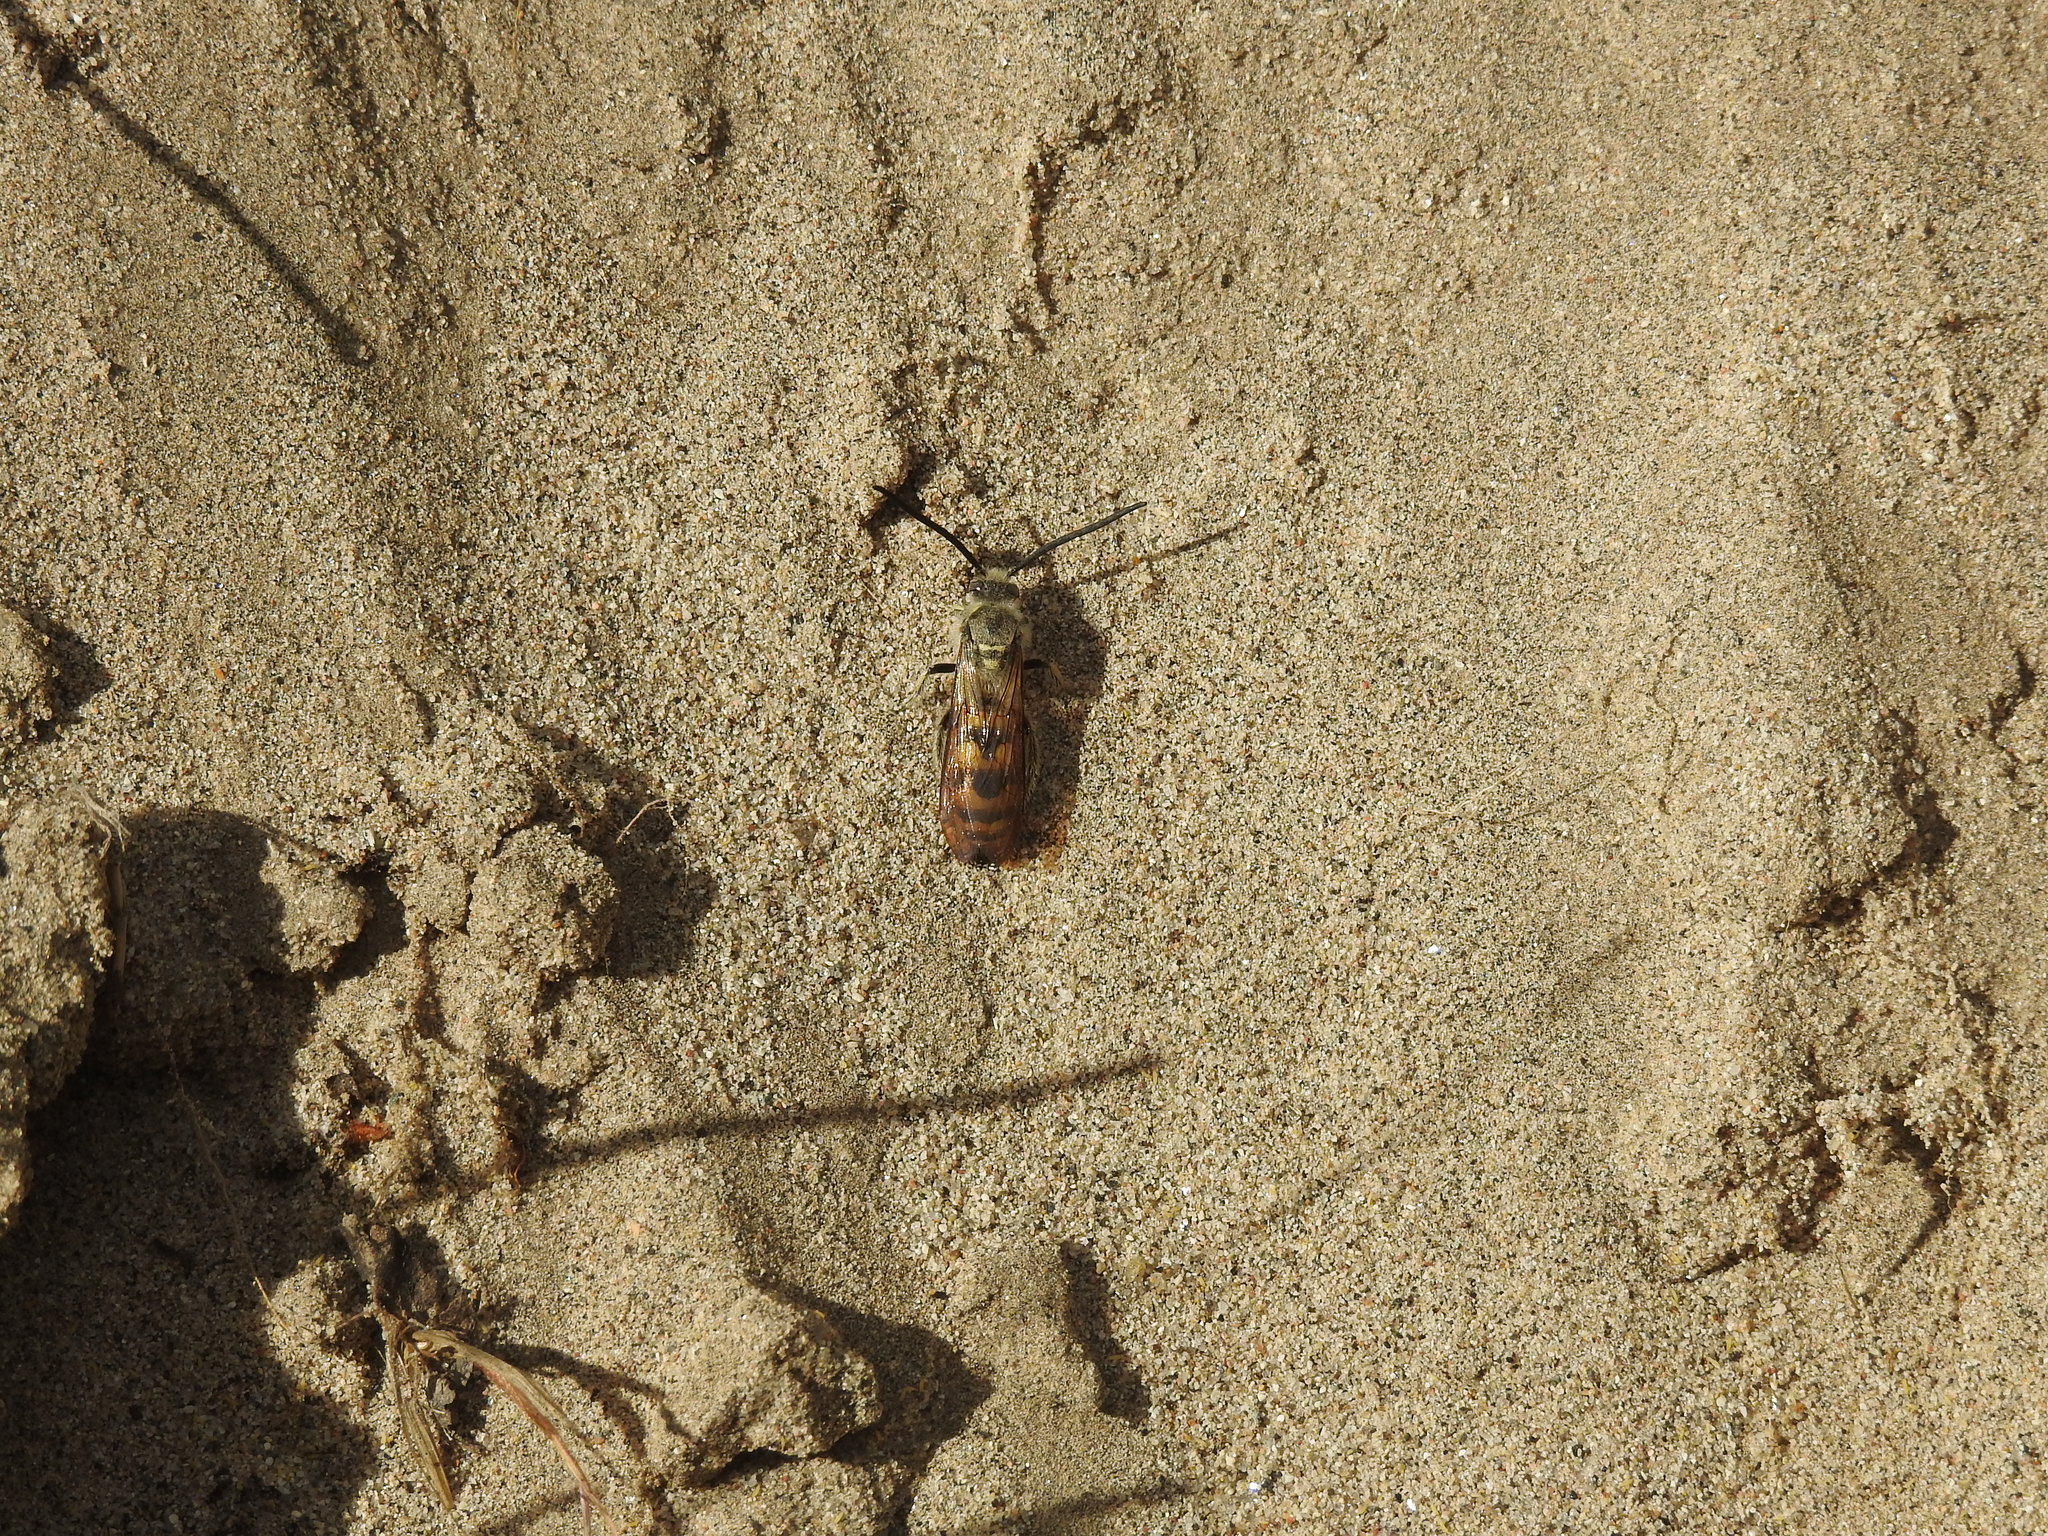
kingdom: Animalia
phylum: Arthropoda
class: Insecta
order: Hymenoptera
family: Scoliidae
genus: Dielis
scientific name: Dielis
